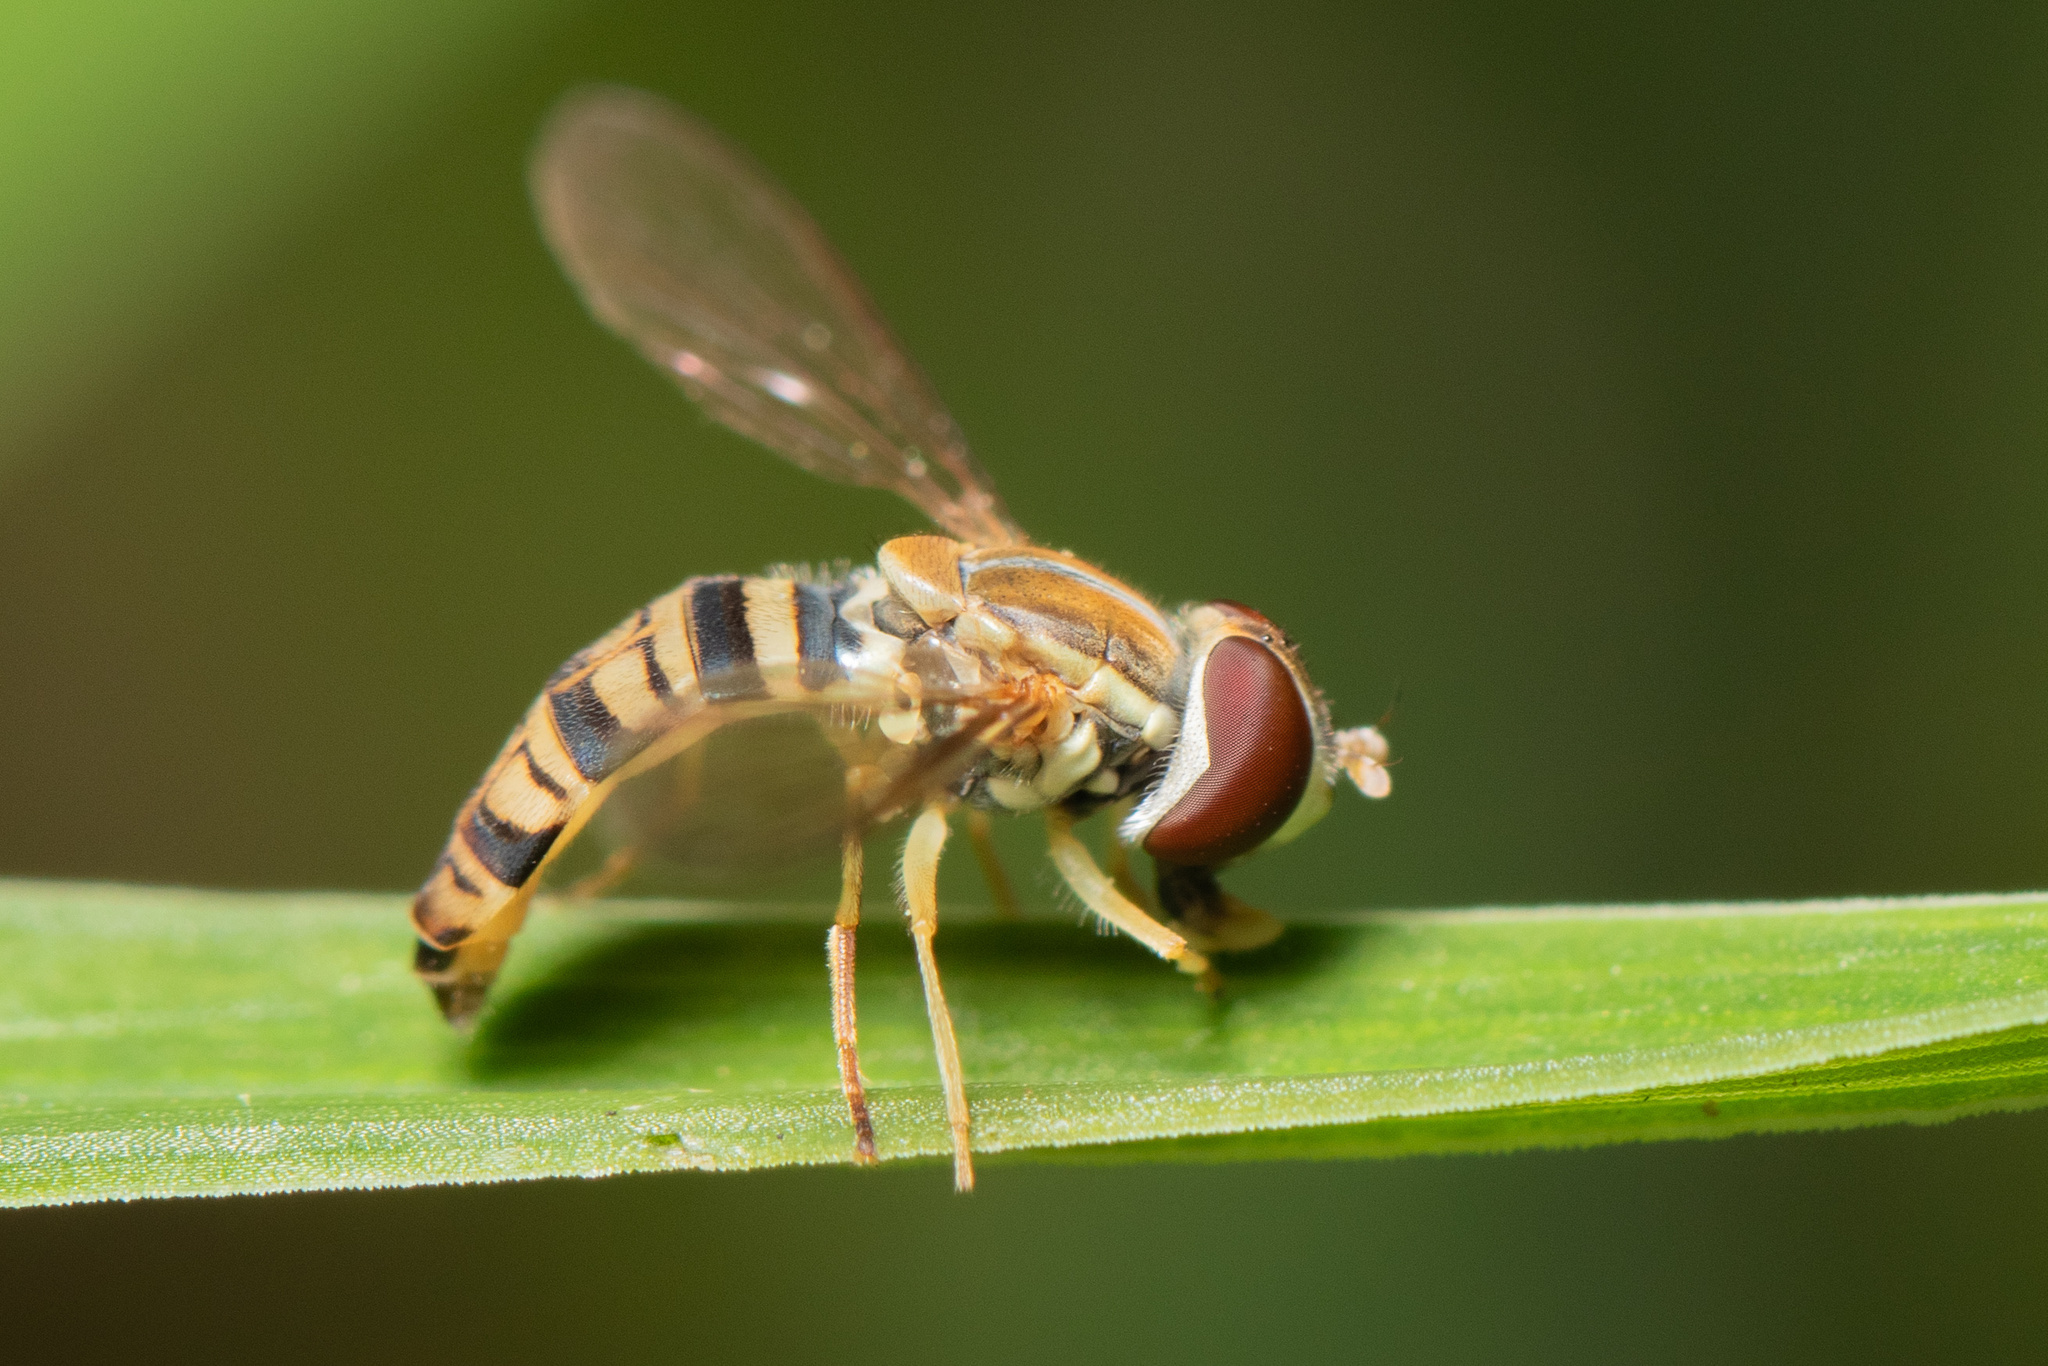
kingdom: Animalia
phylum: Arthropoda
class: Insecta
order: Diptera
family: Syrphidae
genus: Toxomerus
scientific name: Toxomerus politus
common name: Maize calligrapher
